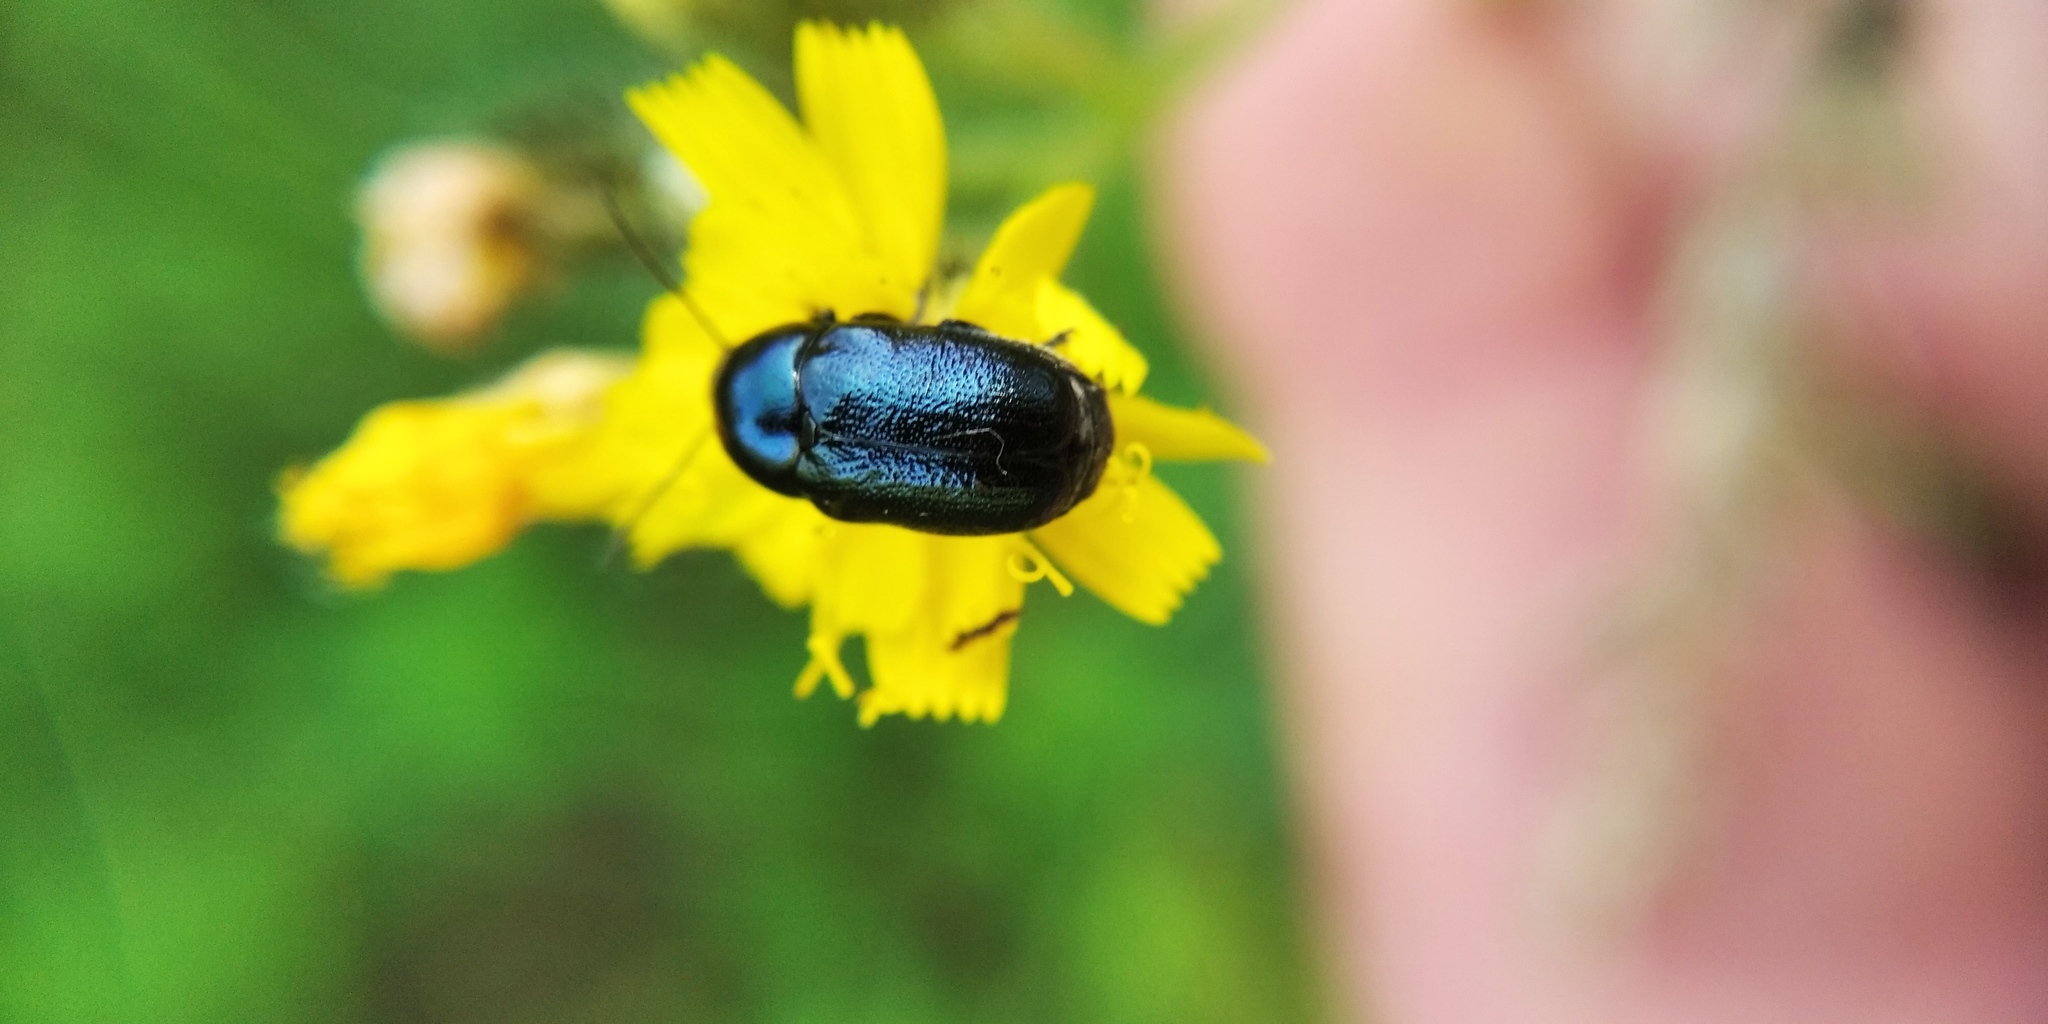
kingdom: Animalia
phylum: Arthropoda
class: Insecta
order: Coleoptera
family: Chrysomelidae
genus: Cryptocephalus
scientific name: Cryptocephalus violaceus
